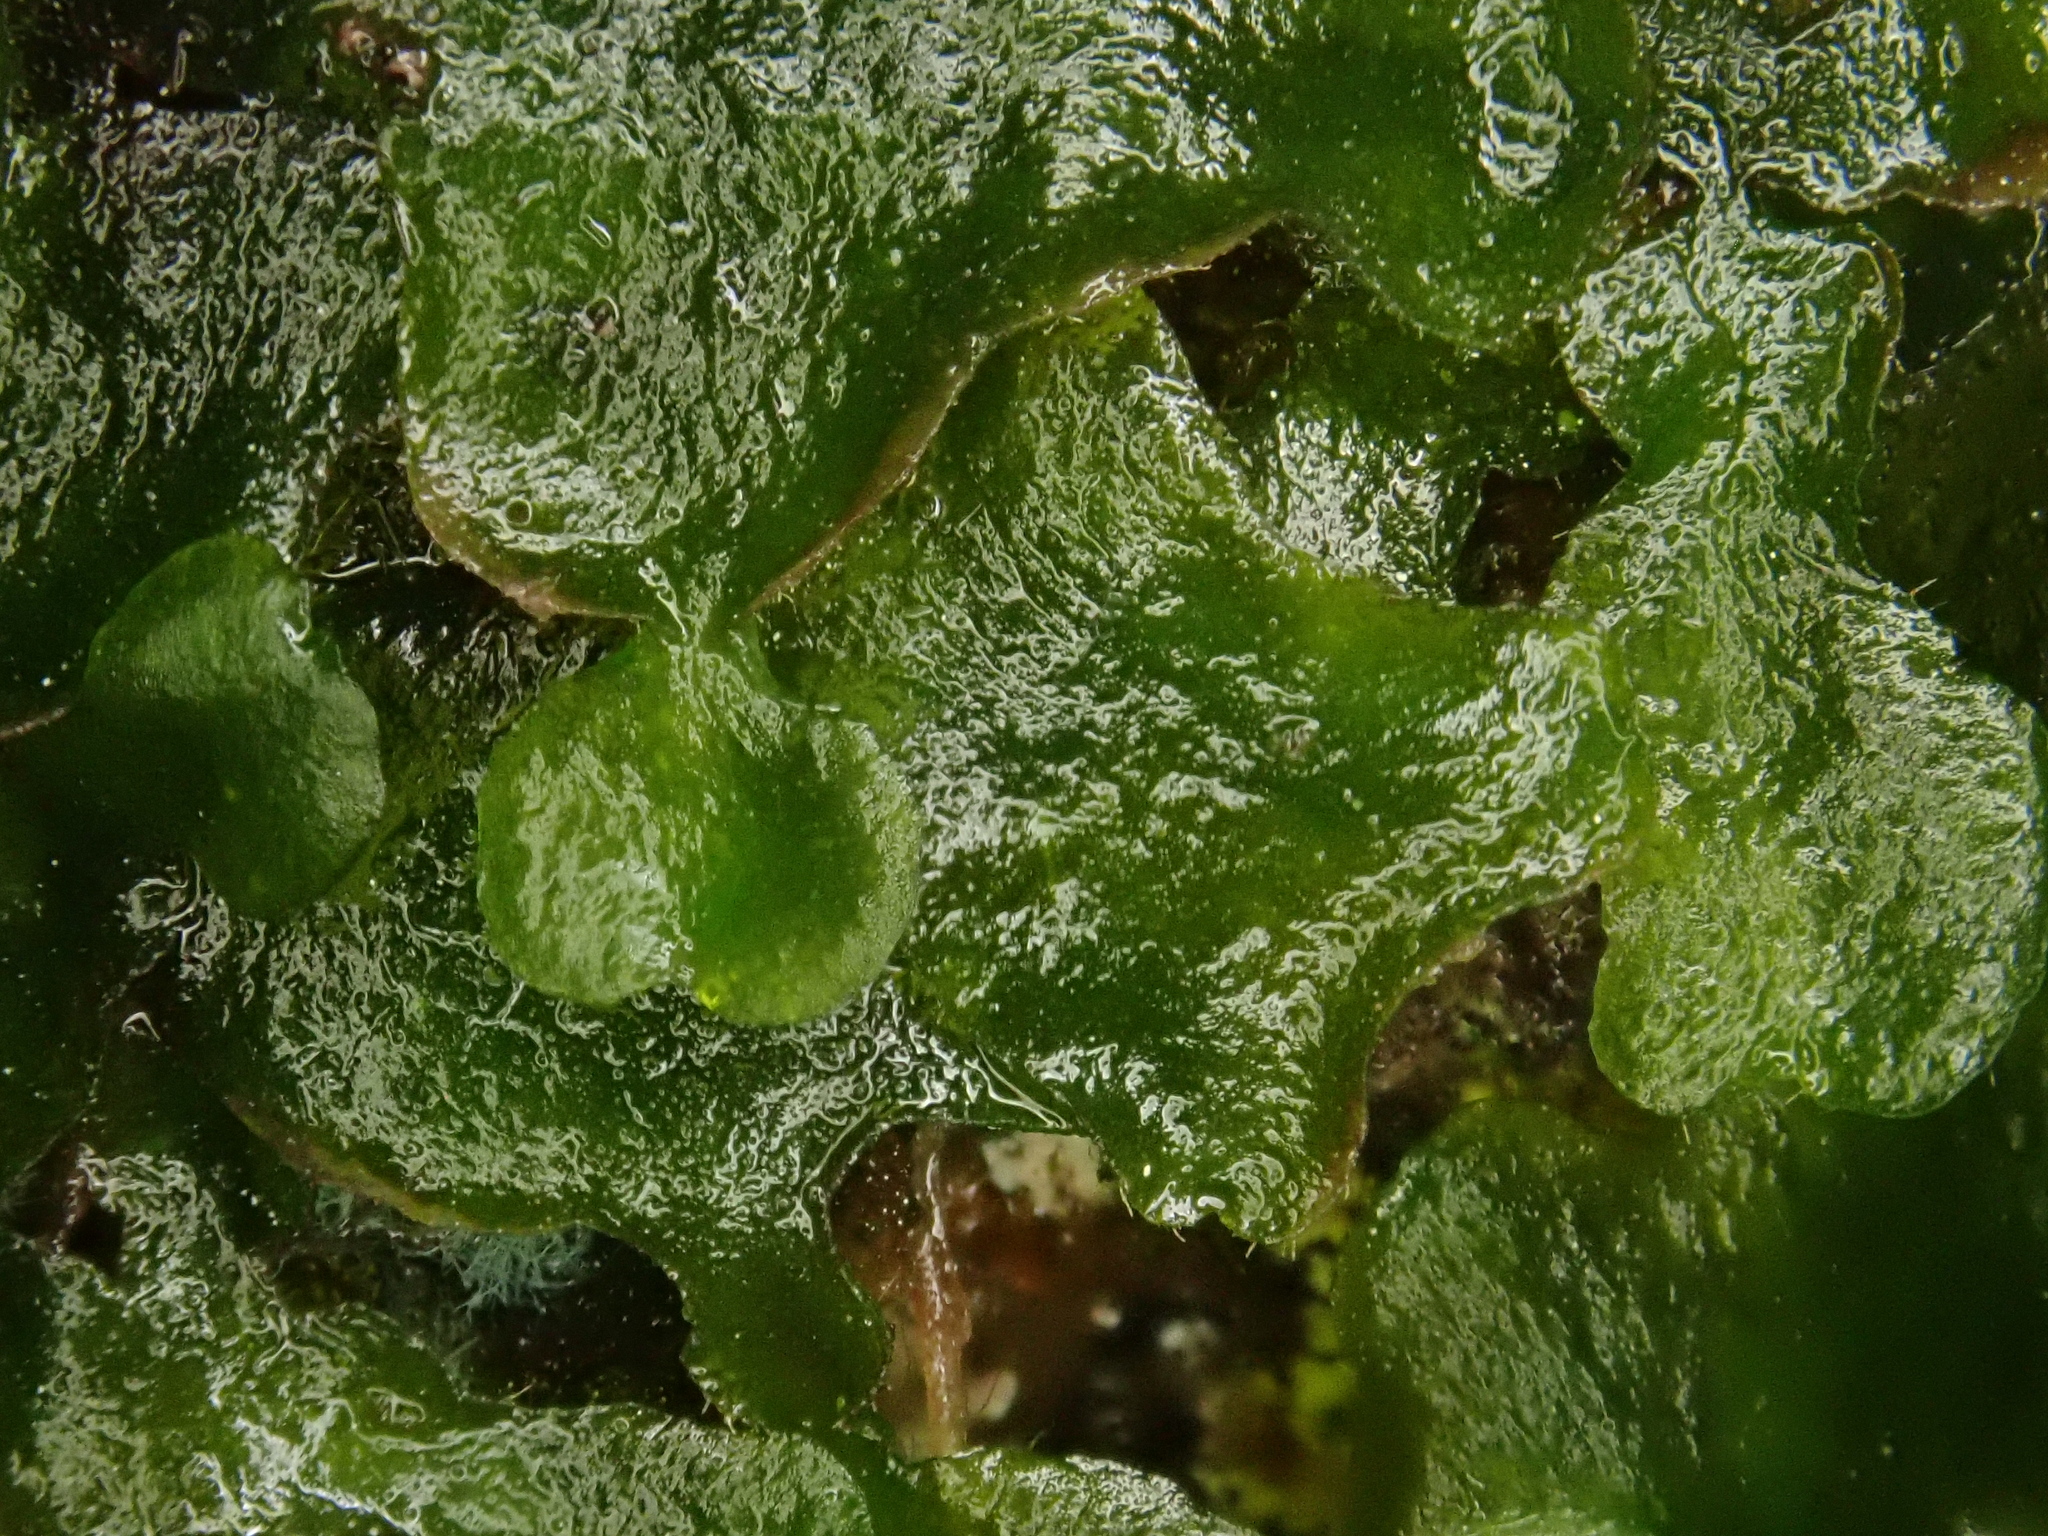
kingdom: Plantae
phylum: Marchantiophyta
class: Marchantiopsida
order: Marchantiales
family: Dumortieraceae
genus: Dumortiera
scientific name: Dumortiera hirsuta
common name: Dumortier's liverwort
